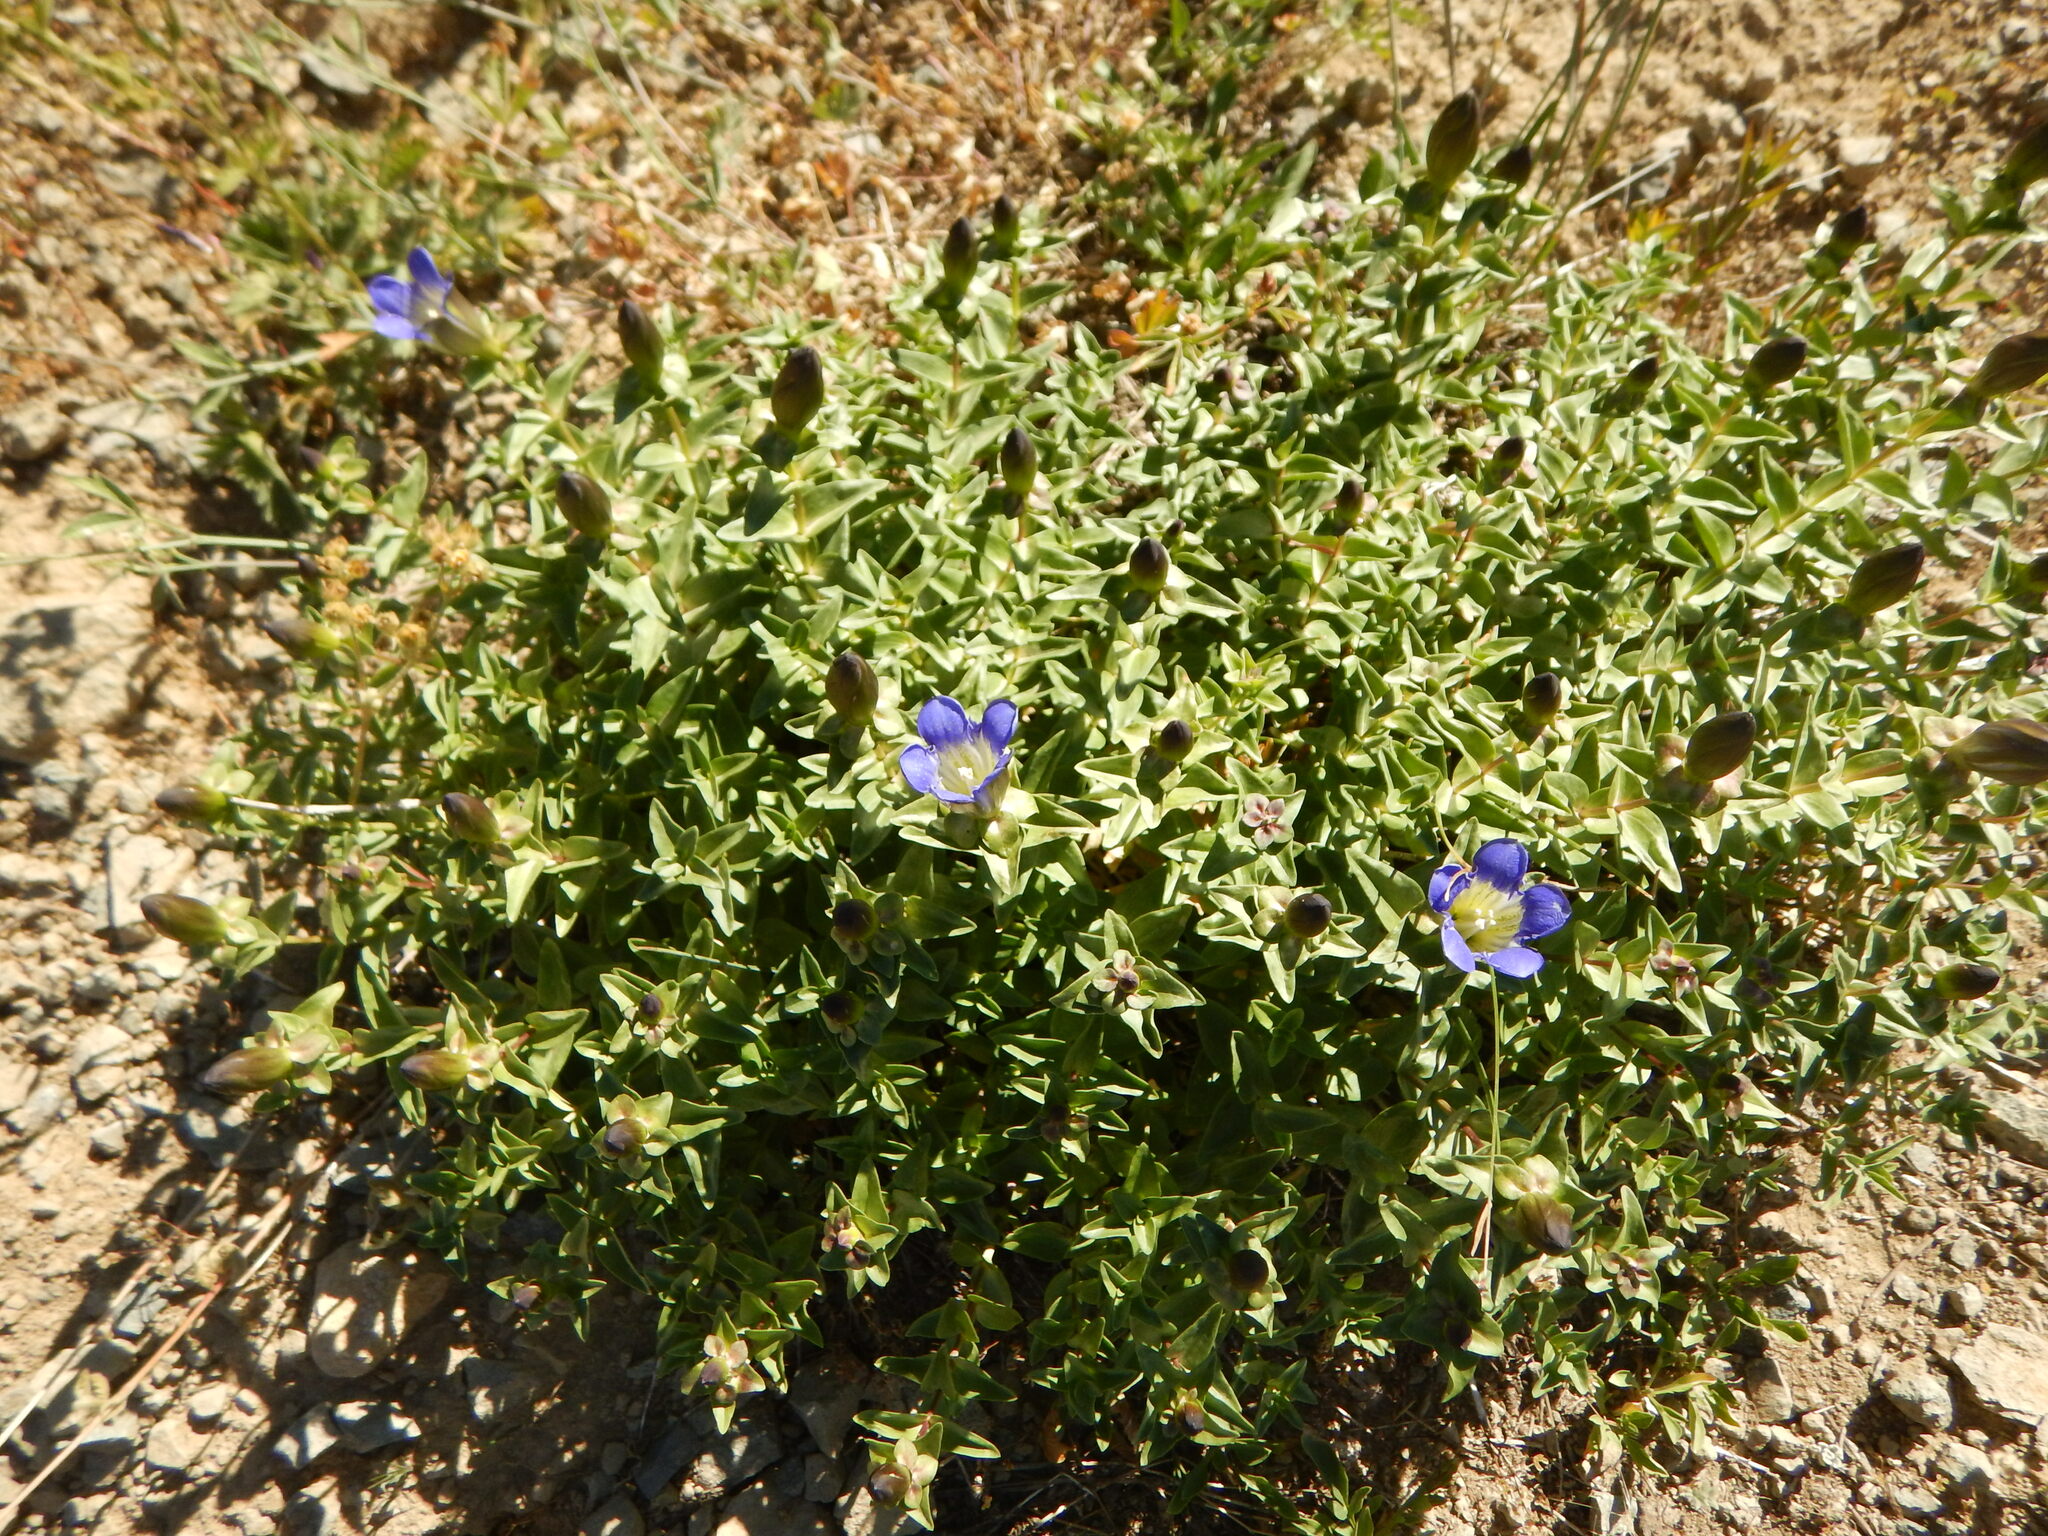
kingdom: Plantae
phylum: Tracheophyta
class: Magnoliopsida
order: Gentianales
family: Gentianaceae
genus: Gentiana
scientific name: Gentiana calycosa
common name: Rainier pleated gentian
